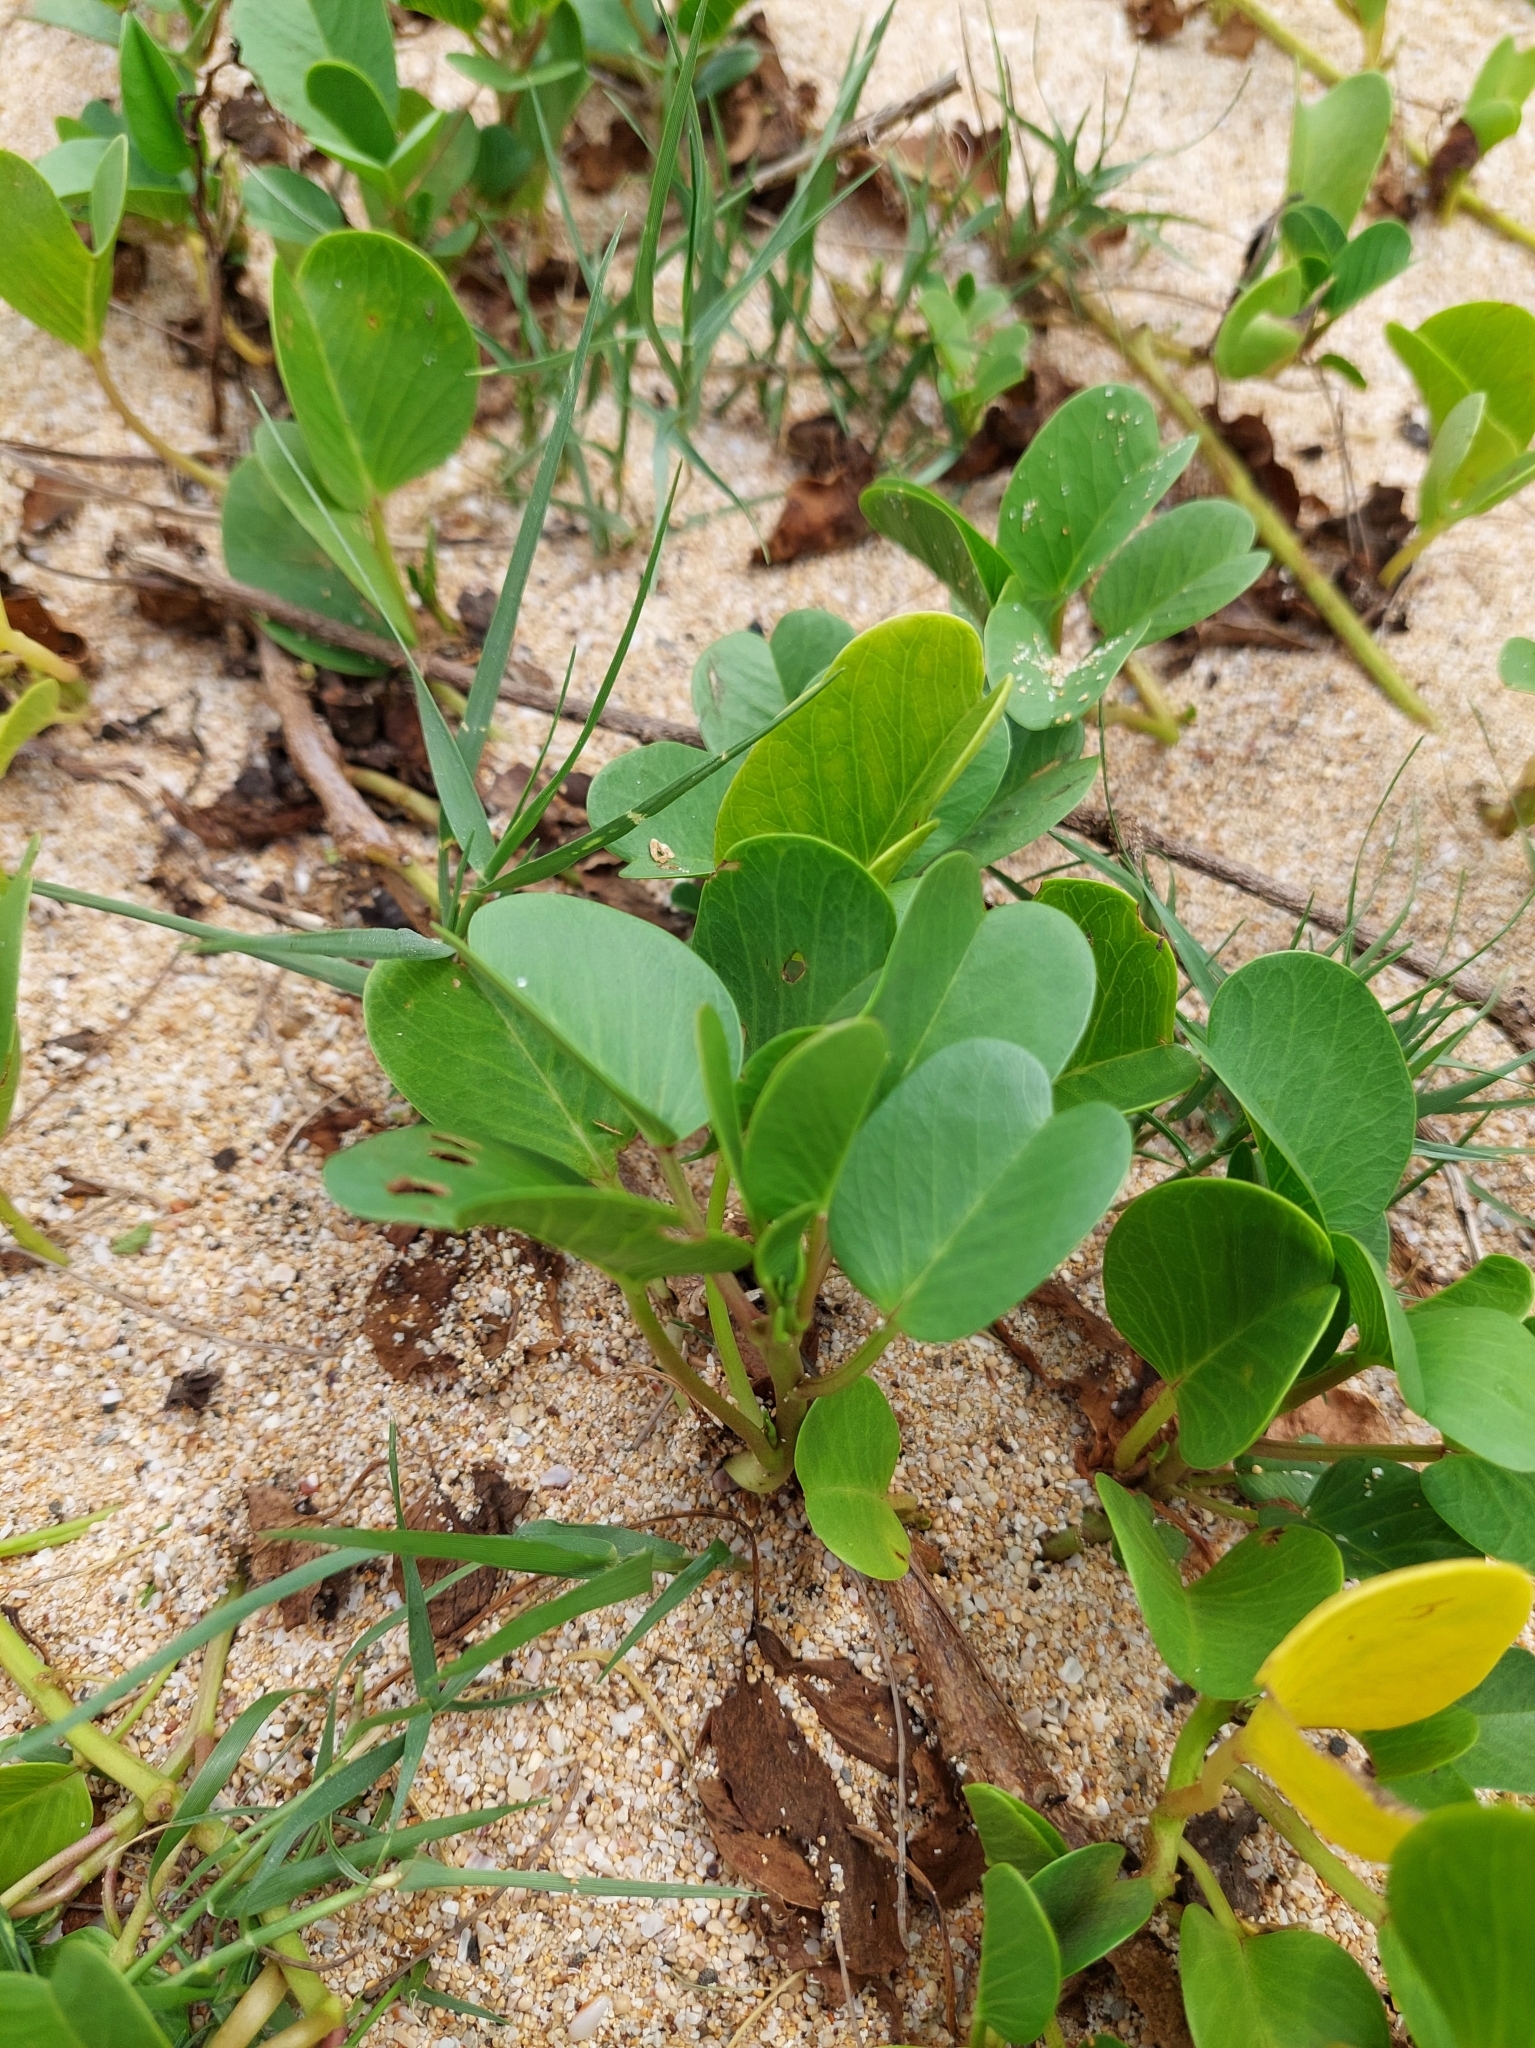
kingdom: Plantae
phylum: Tracheophyta
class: Magnoliopsida
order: Solanales
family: Convolvulaceae
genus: Ipomoea
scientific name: Ipomoea pes-caprae
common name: Beach morning glory
